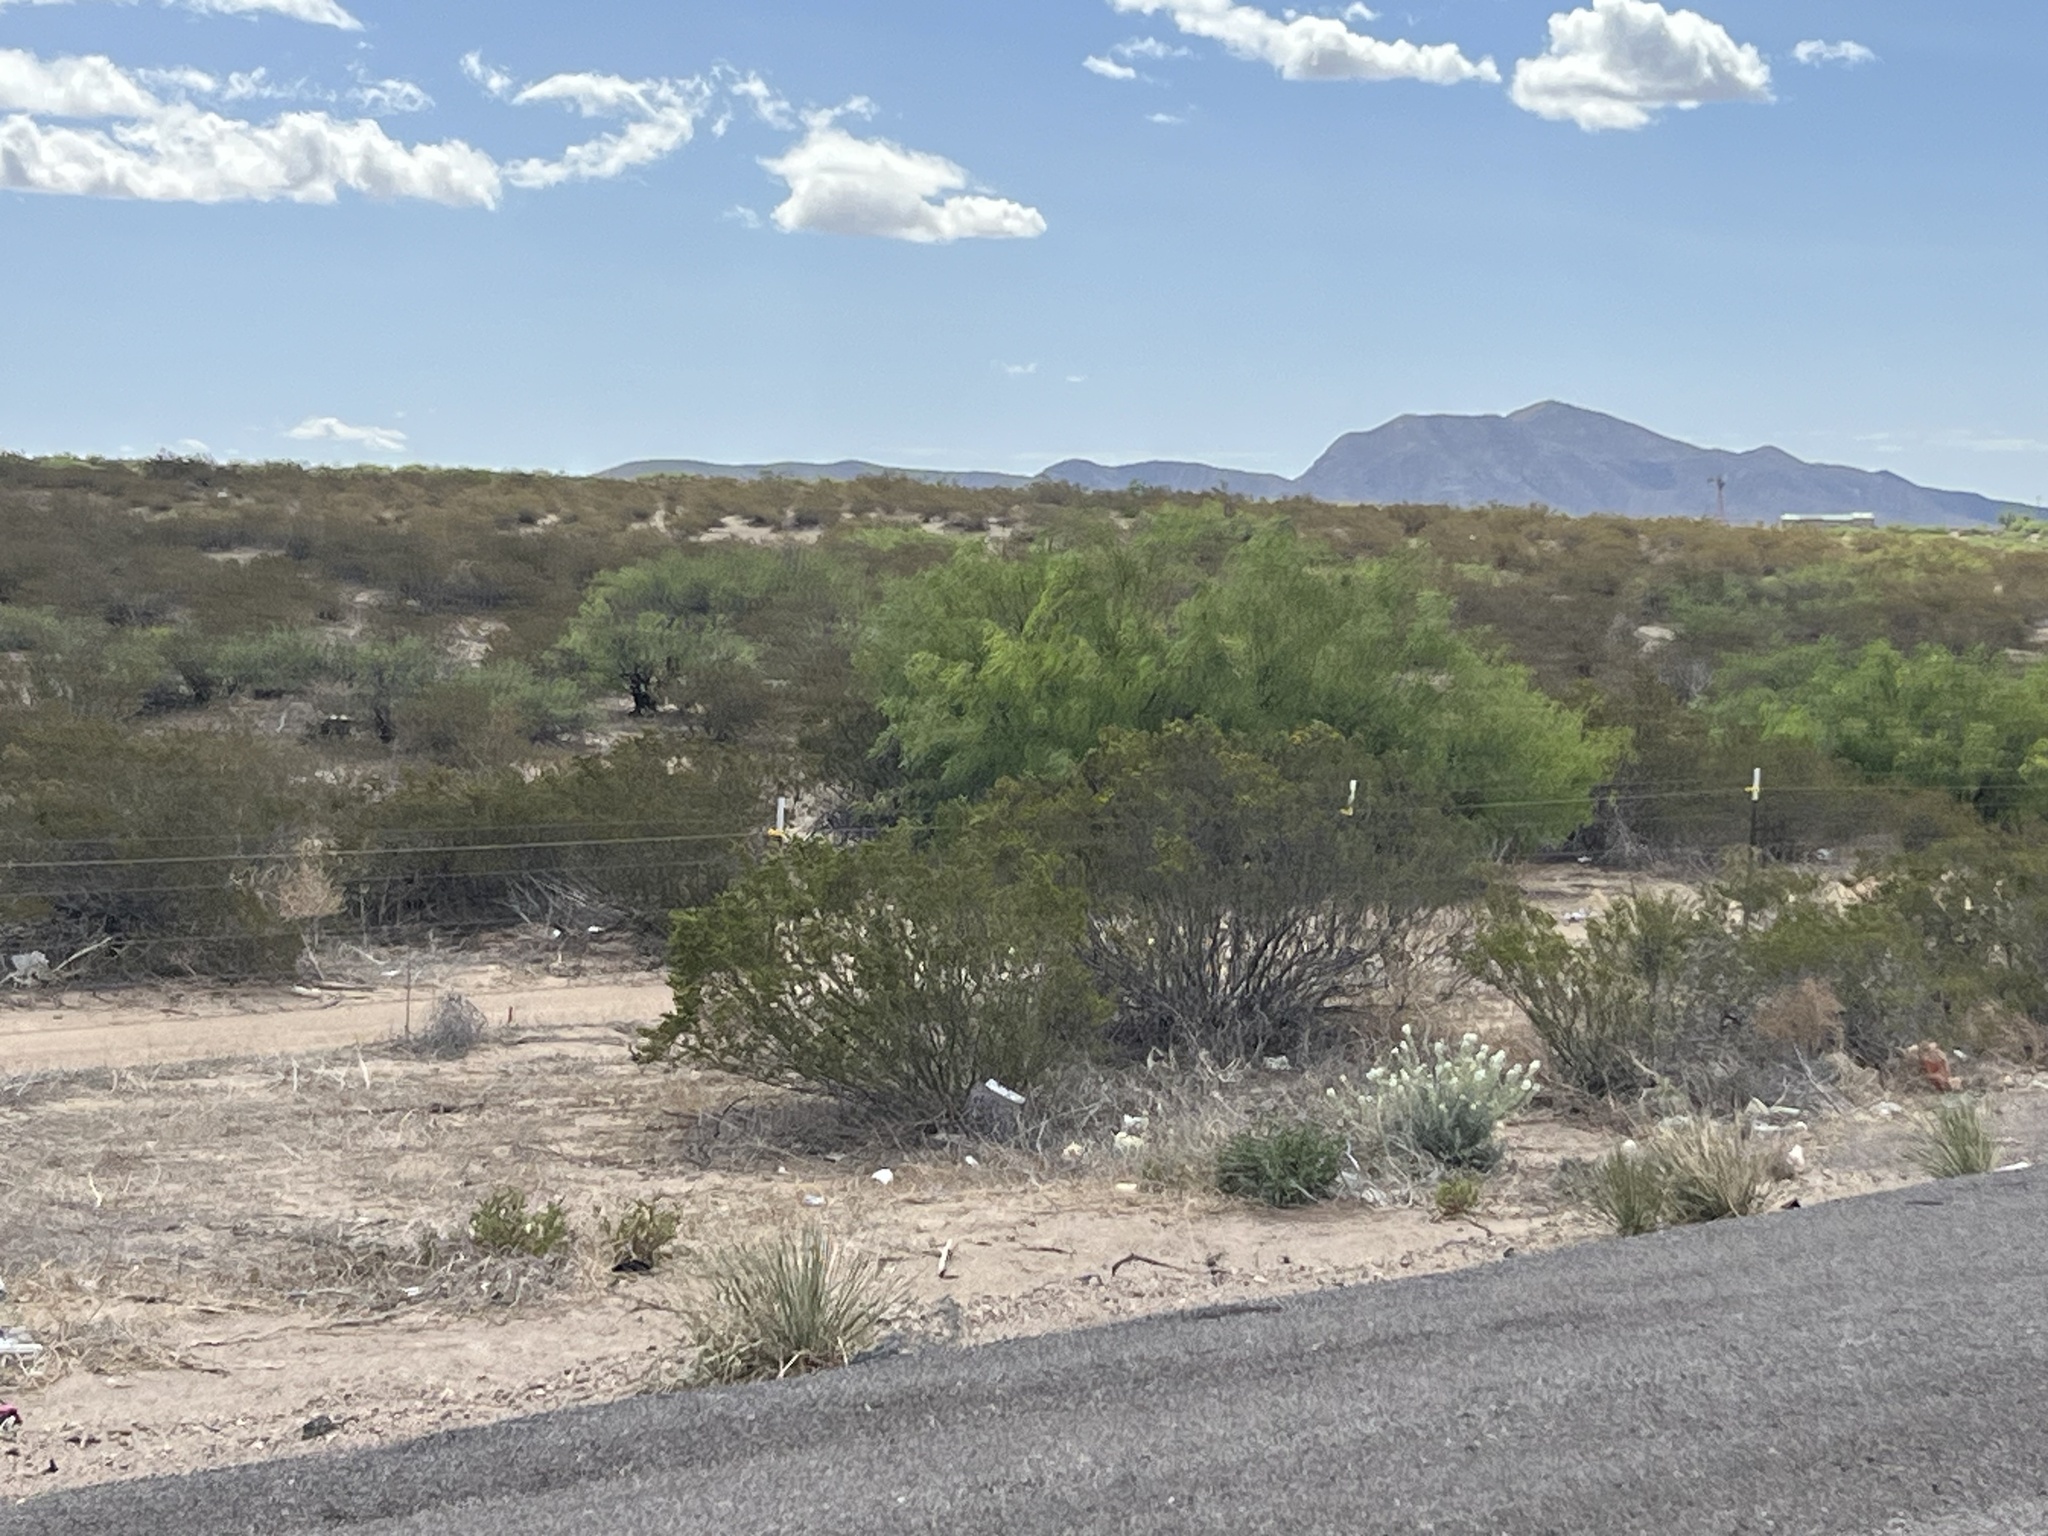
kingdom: Plantae
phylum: Tracheophyta
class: Magnoliopsida
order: Zygophyllales
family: Zygophyllaceae
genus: Larrea
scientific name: Larrea tridentata
